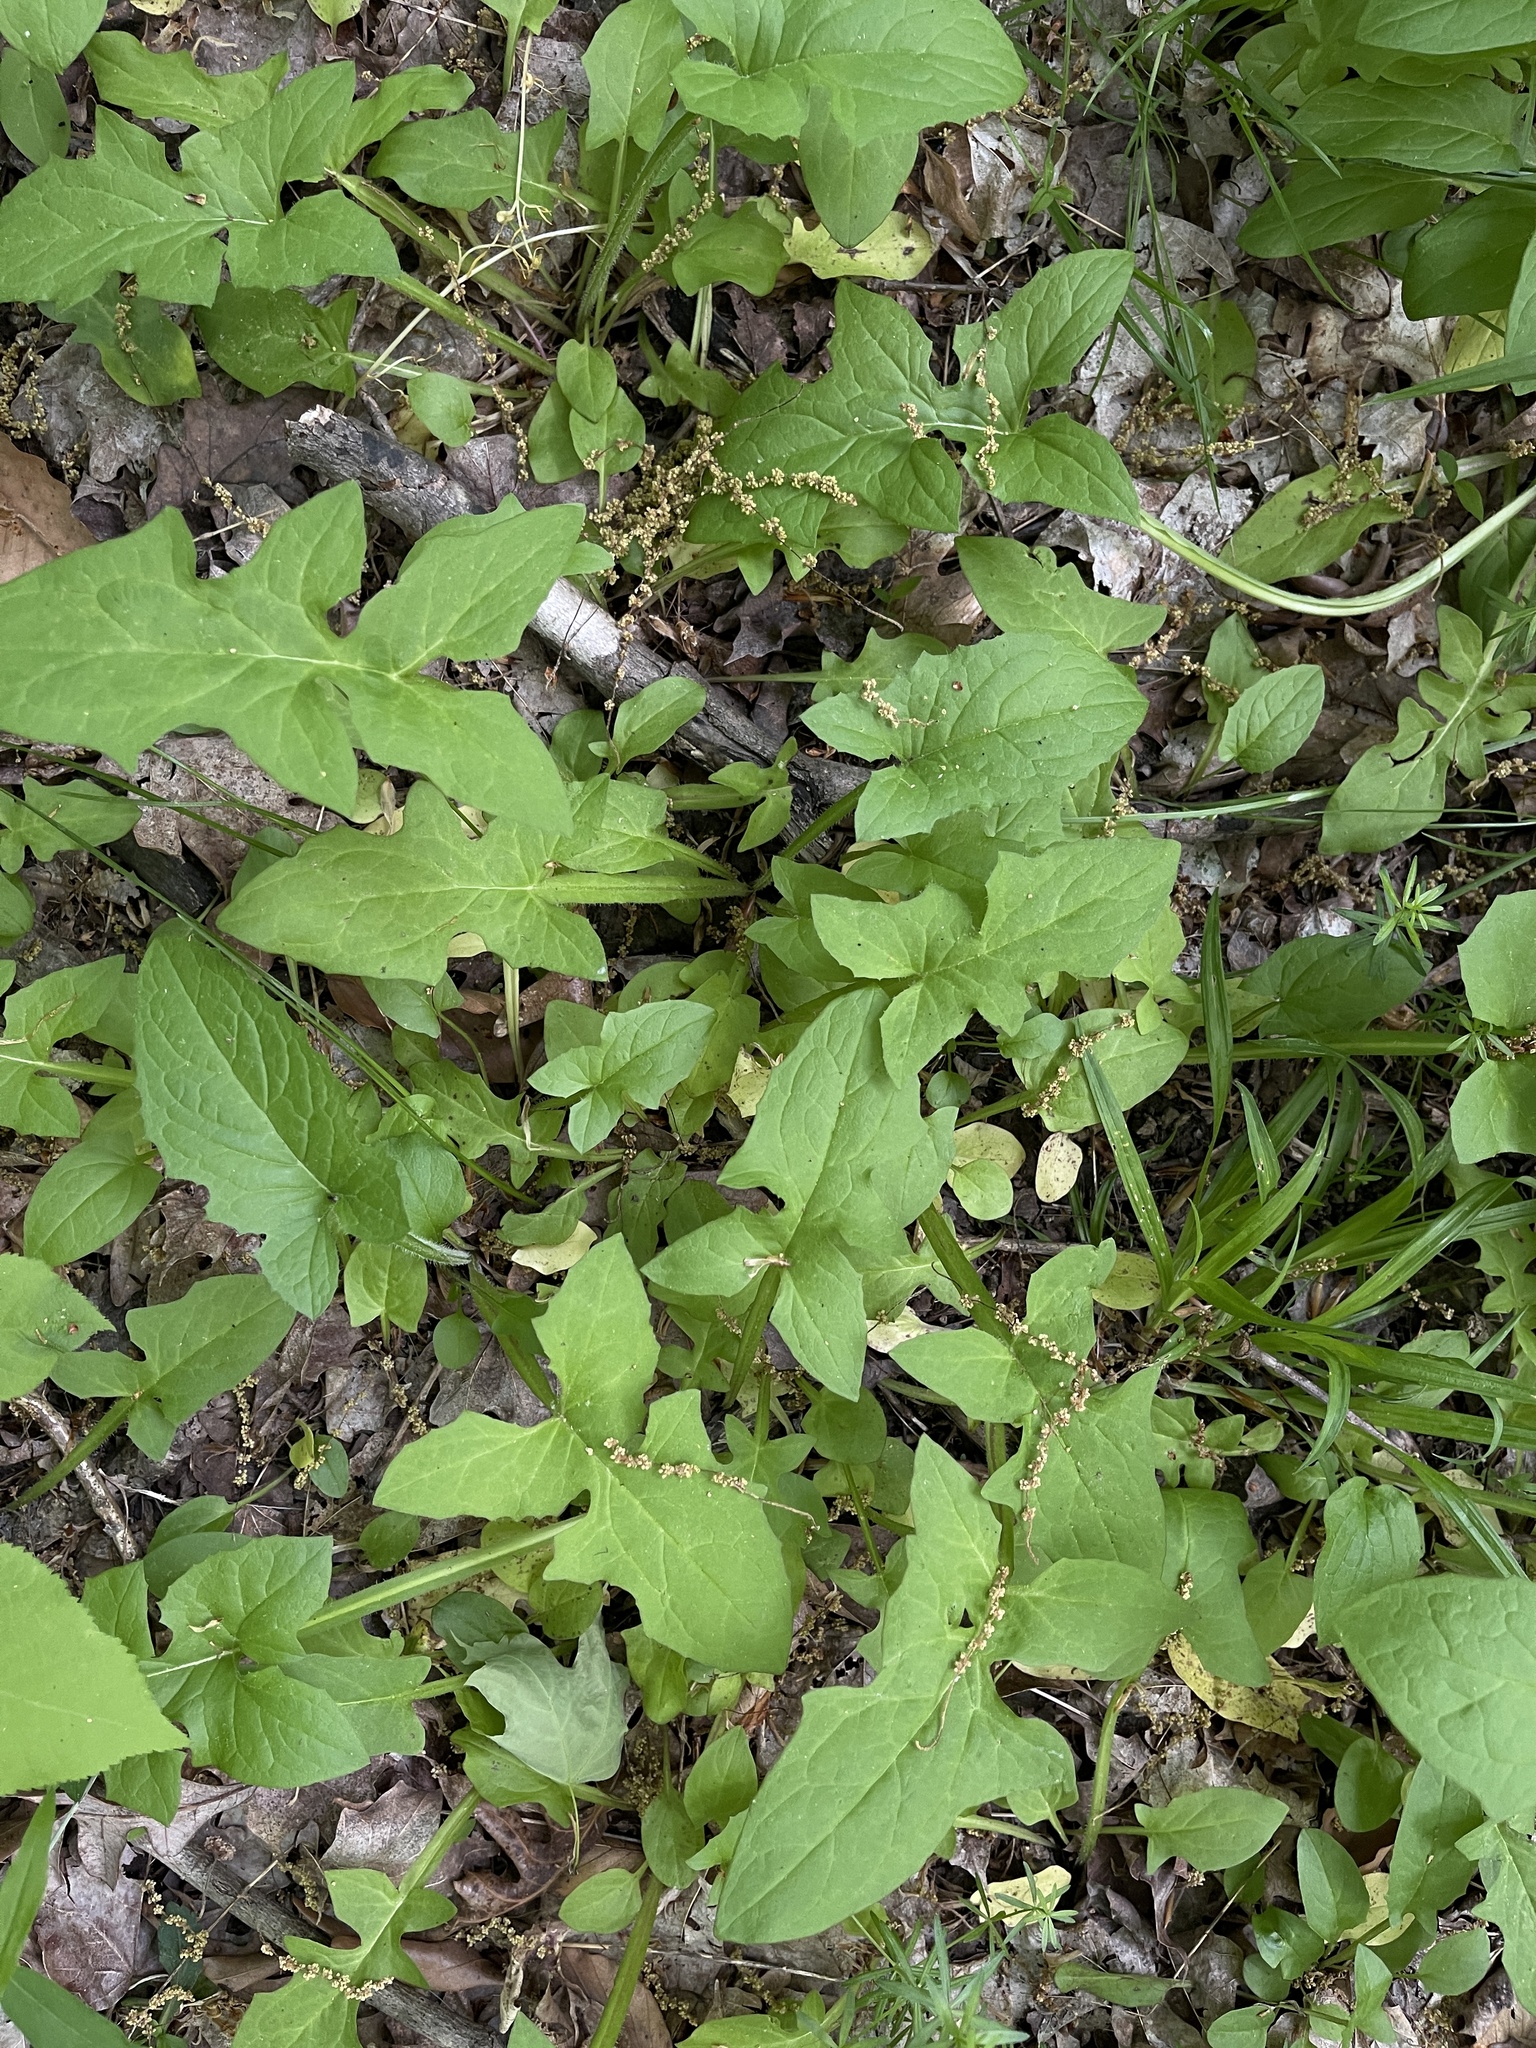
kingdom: Plantae
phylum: Tracheophyta
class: Magnoliopsida
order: Asterales
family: Asteraceae
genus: Nabalus
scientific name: Nabalus crepidineus
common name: Nodding rattlesnakeroot
